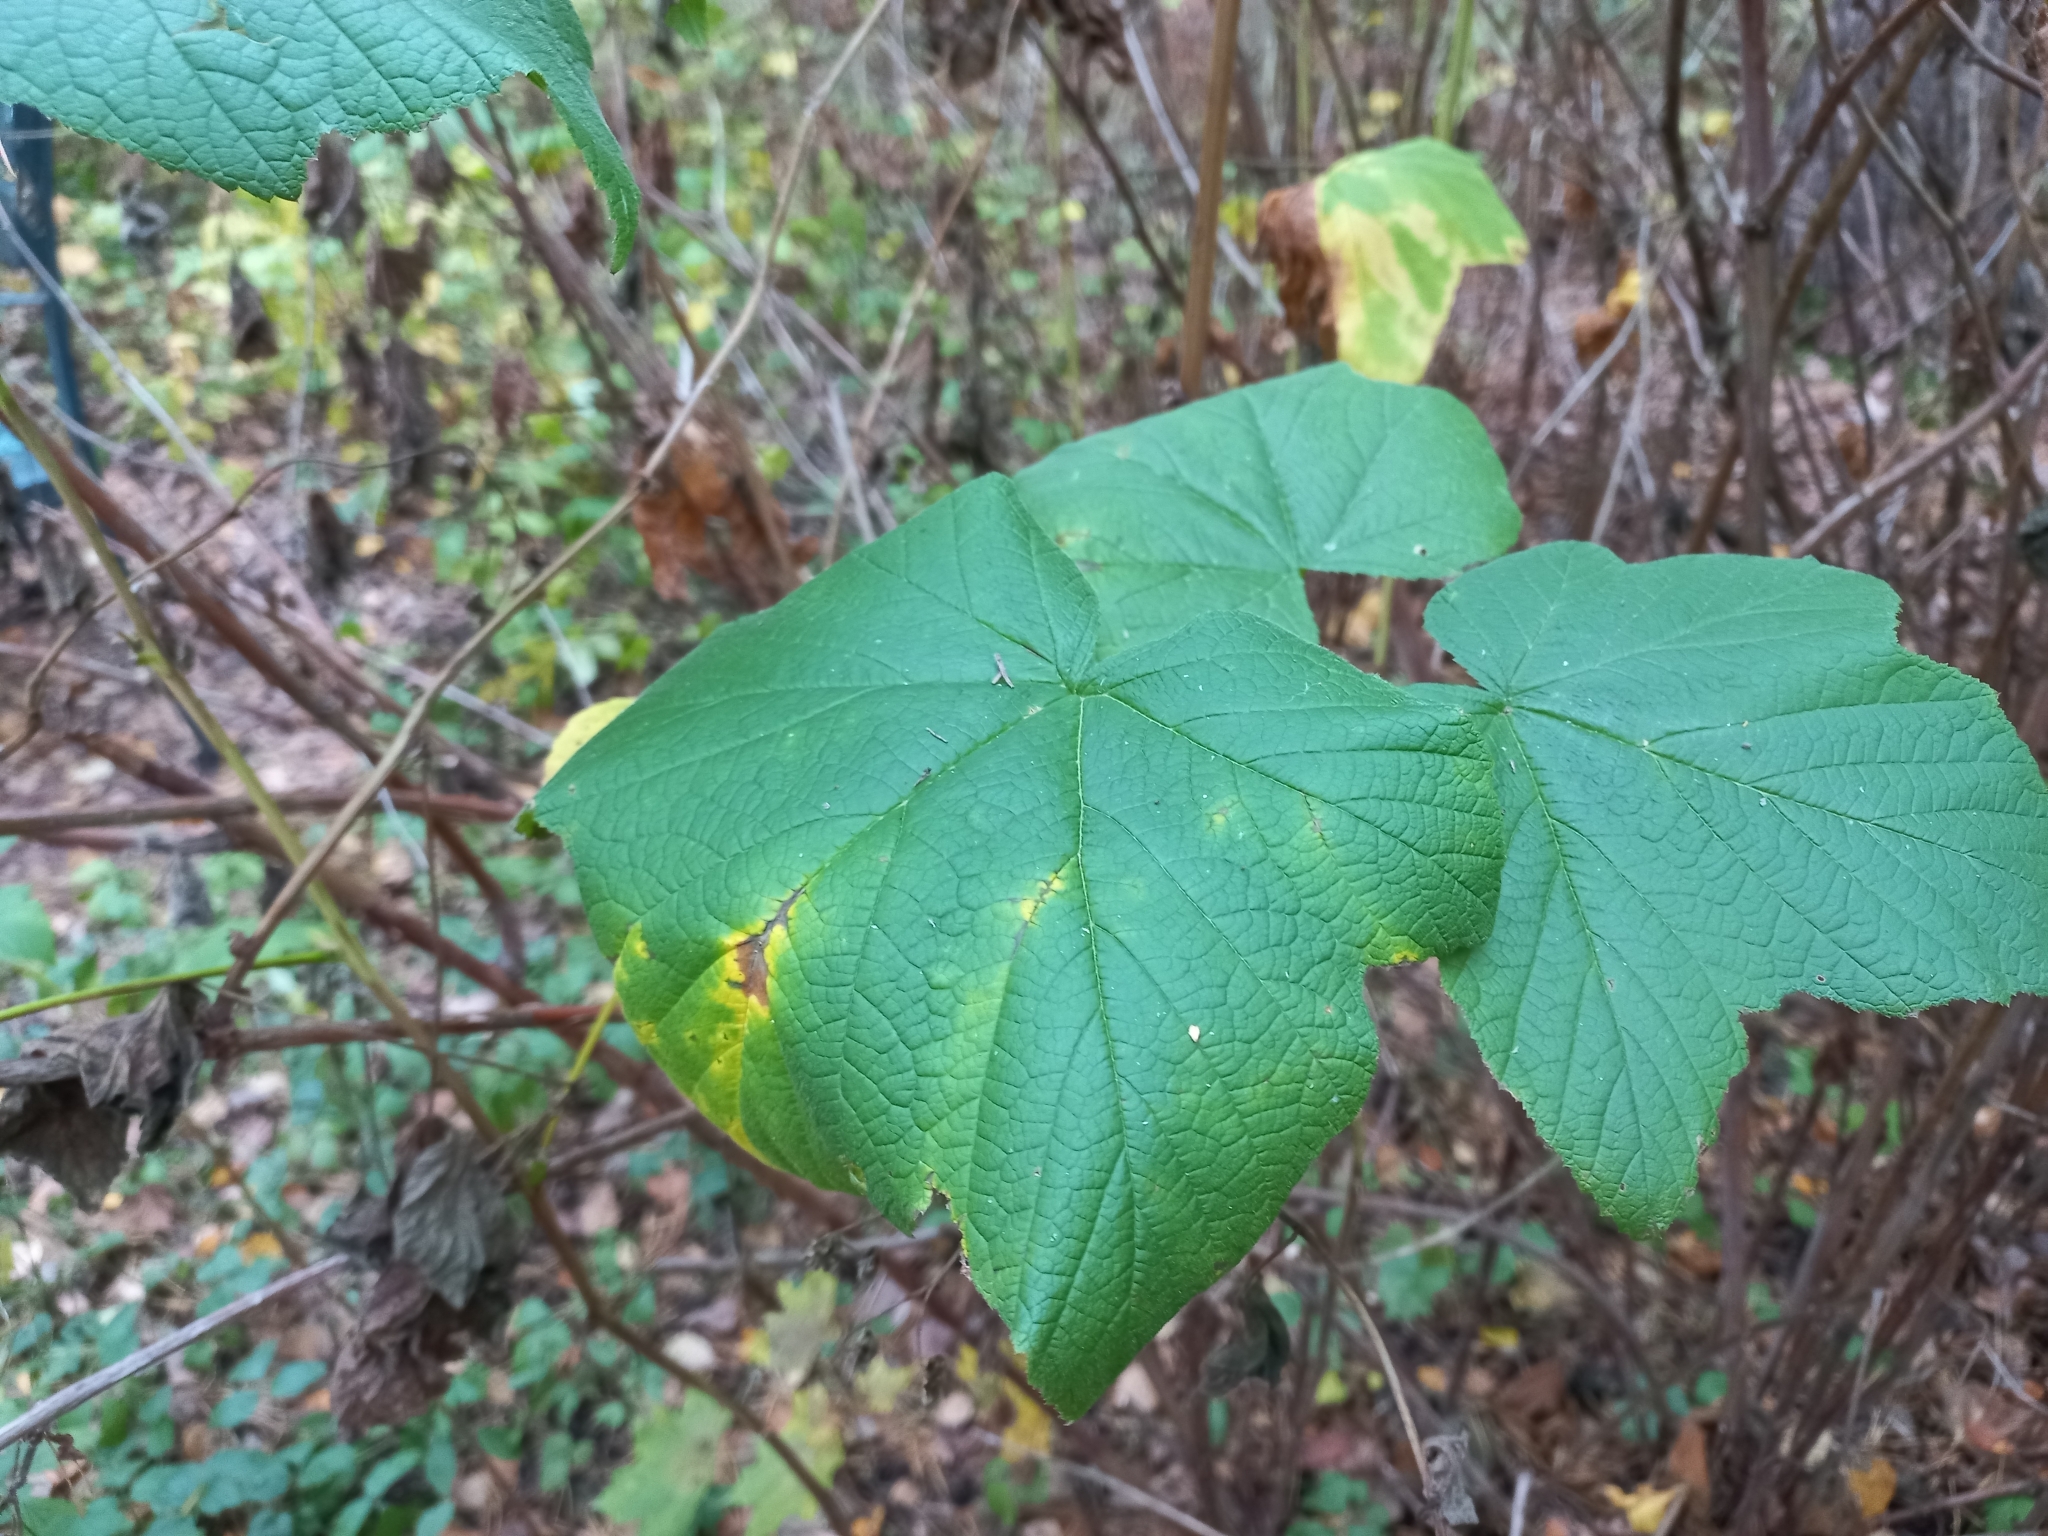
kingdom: Plantae
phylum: Tracheophyta
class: Magnoliopsida
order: Rosales
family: Rosaceae
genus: Rubus
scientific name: Rubus odoratus
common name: Purple-flowered raspberry
